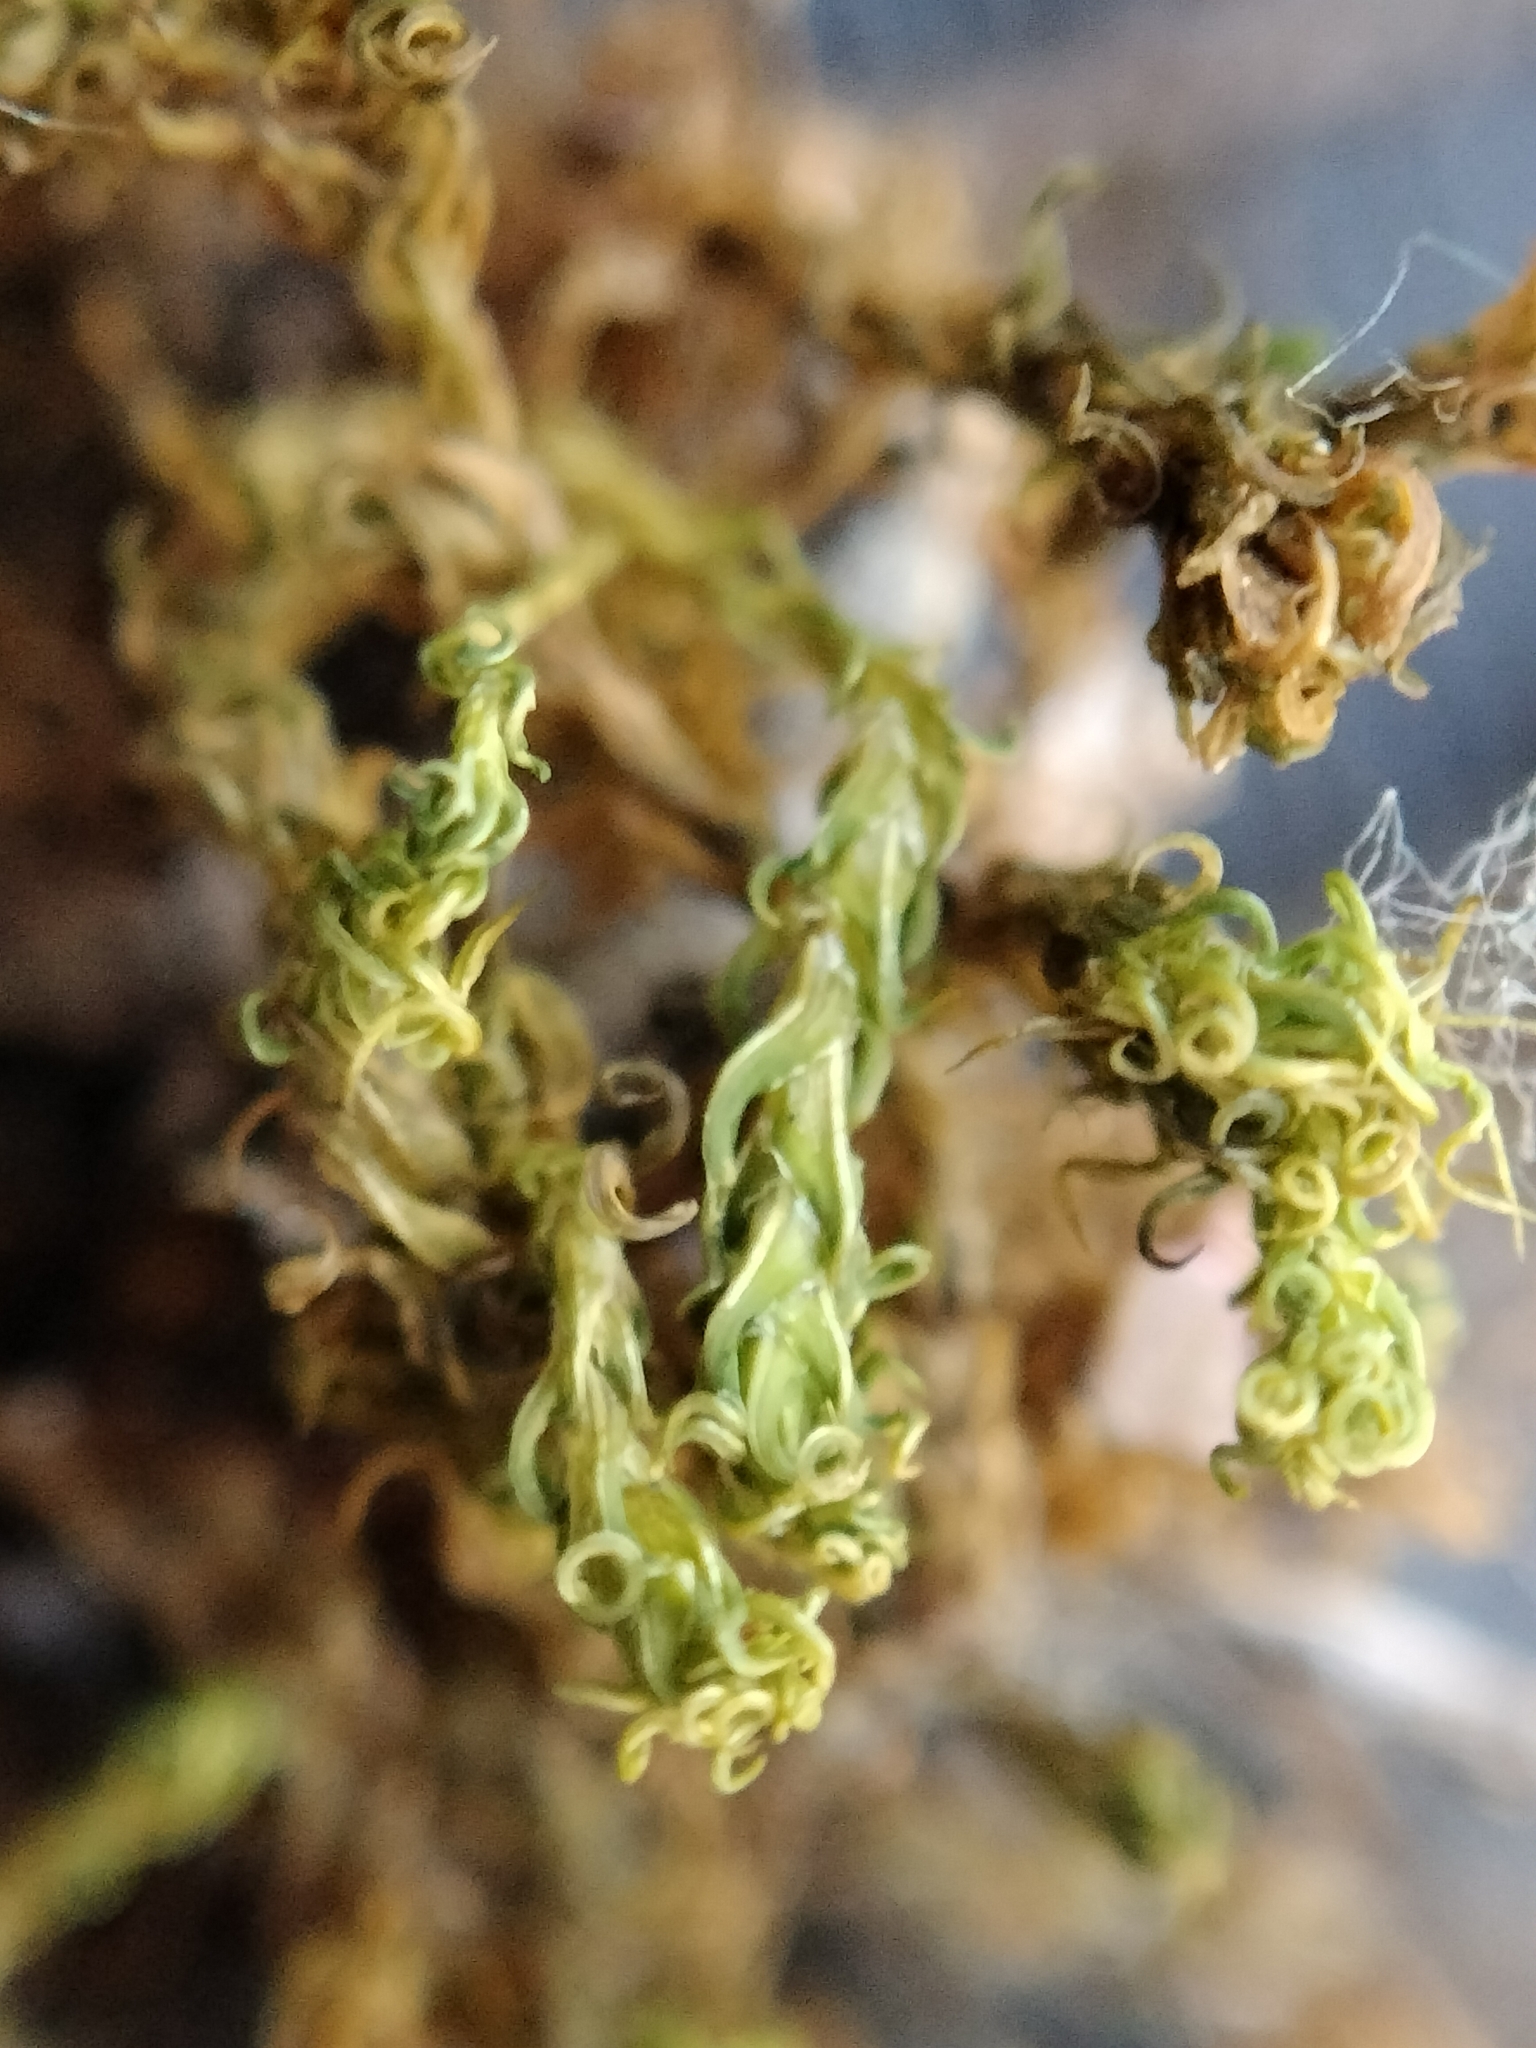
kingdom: Plantae
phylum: Bryophyta
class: Bryopsida
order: Pottiales
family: Pottiaceae
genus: Pleurochaete
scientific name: Pleurochaete squarrosa
